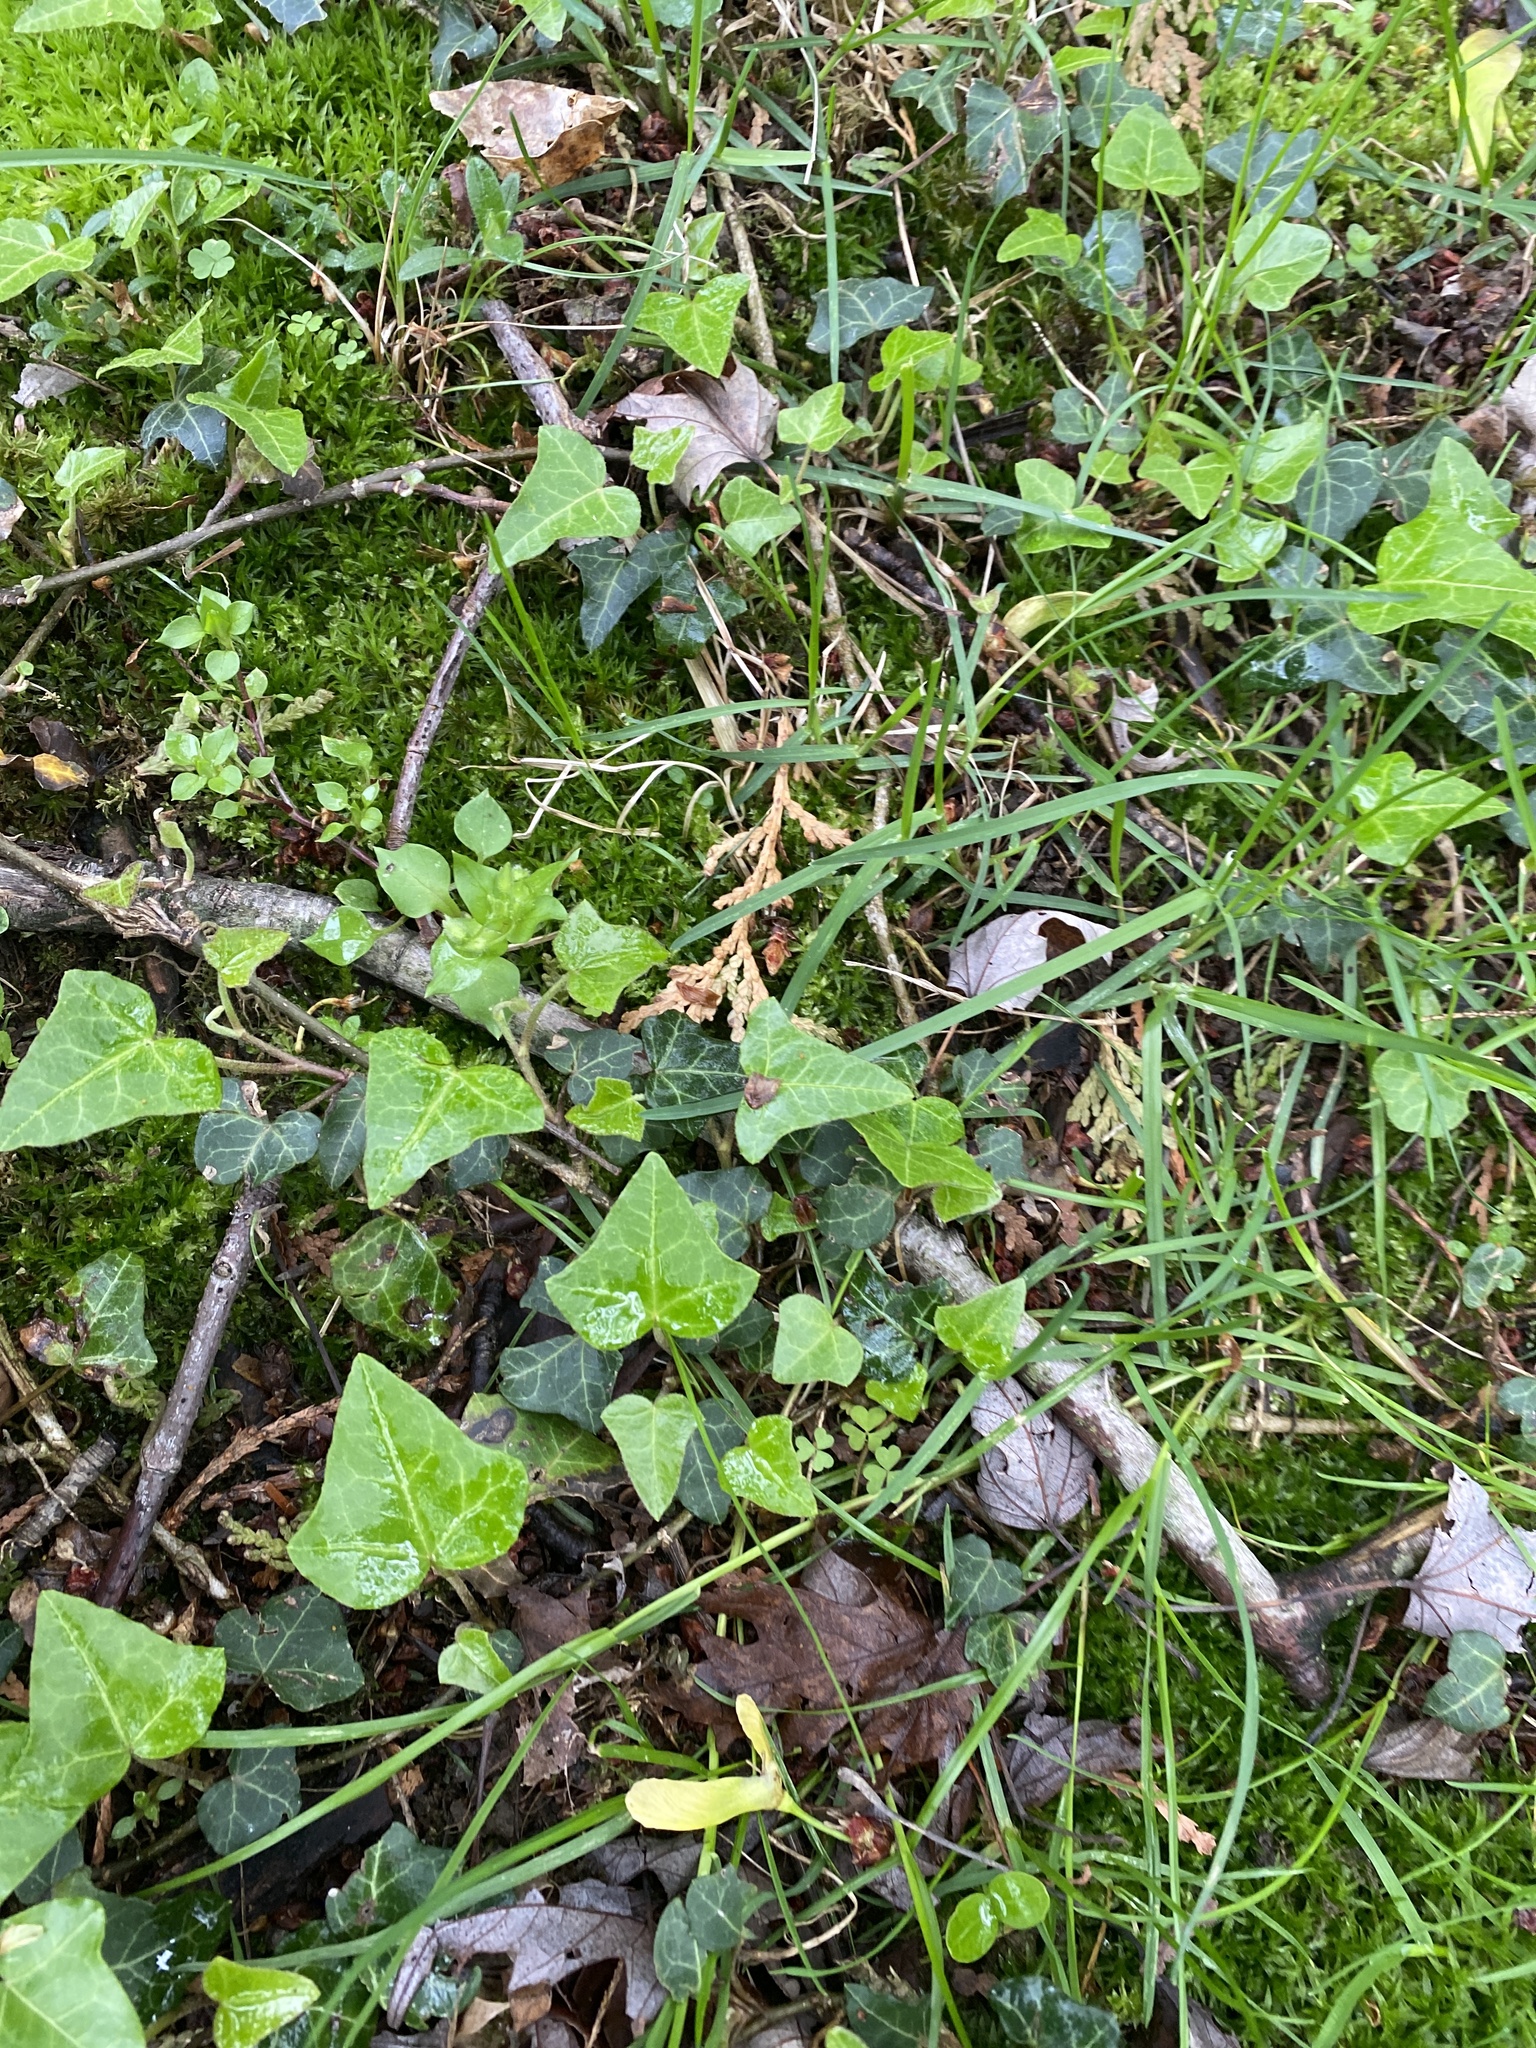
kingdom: Plantae
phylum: Tracheophyta
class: Magnoliopsida
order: Apiales
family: Araliaceae
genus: Hedera
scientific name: Hedera helix
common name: Ivy
